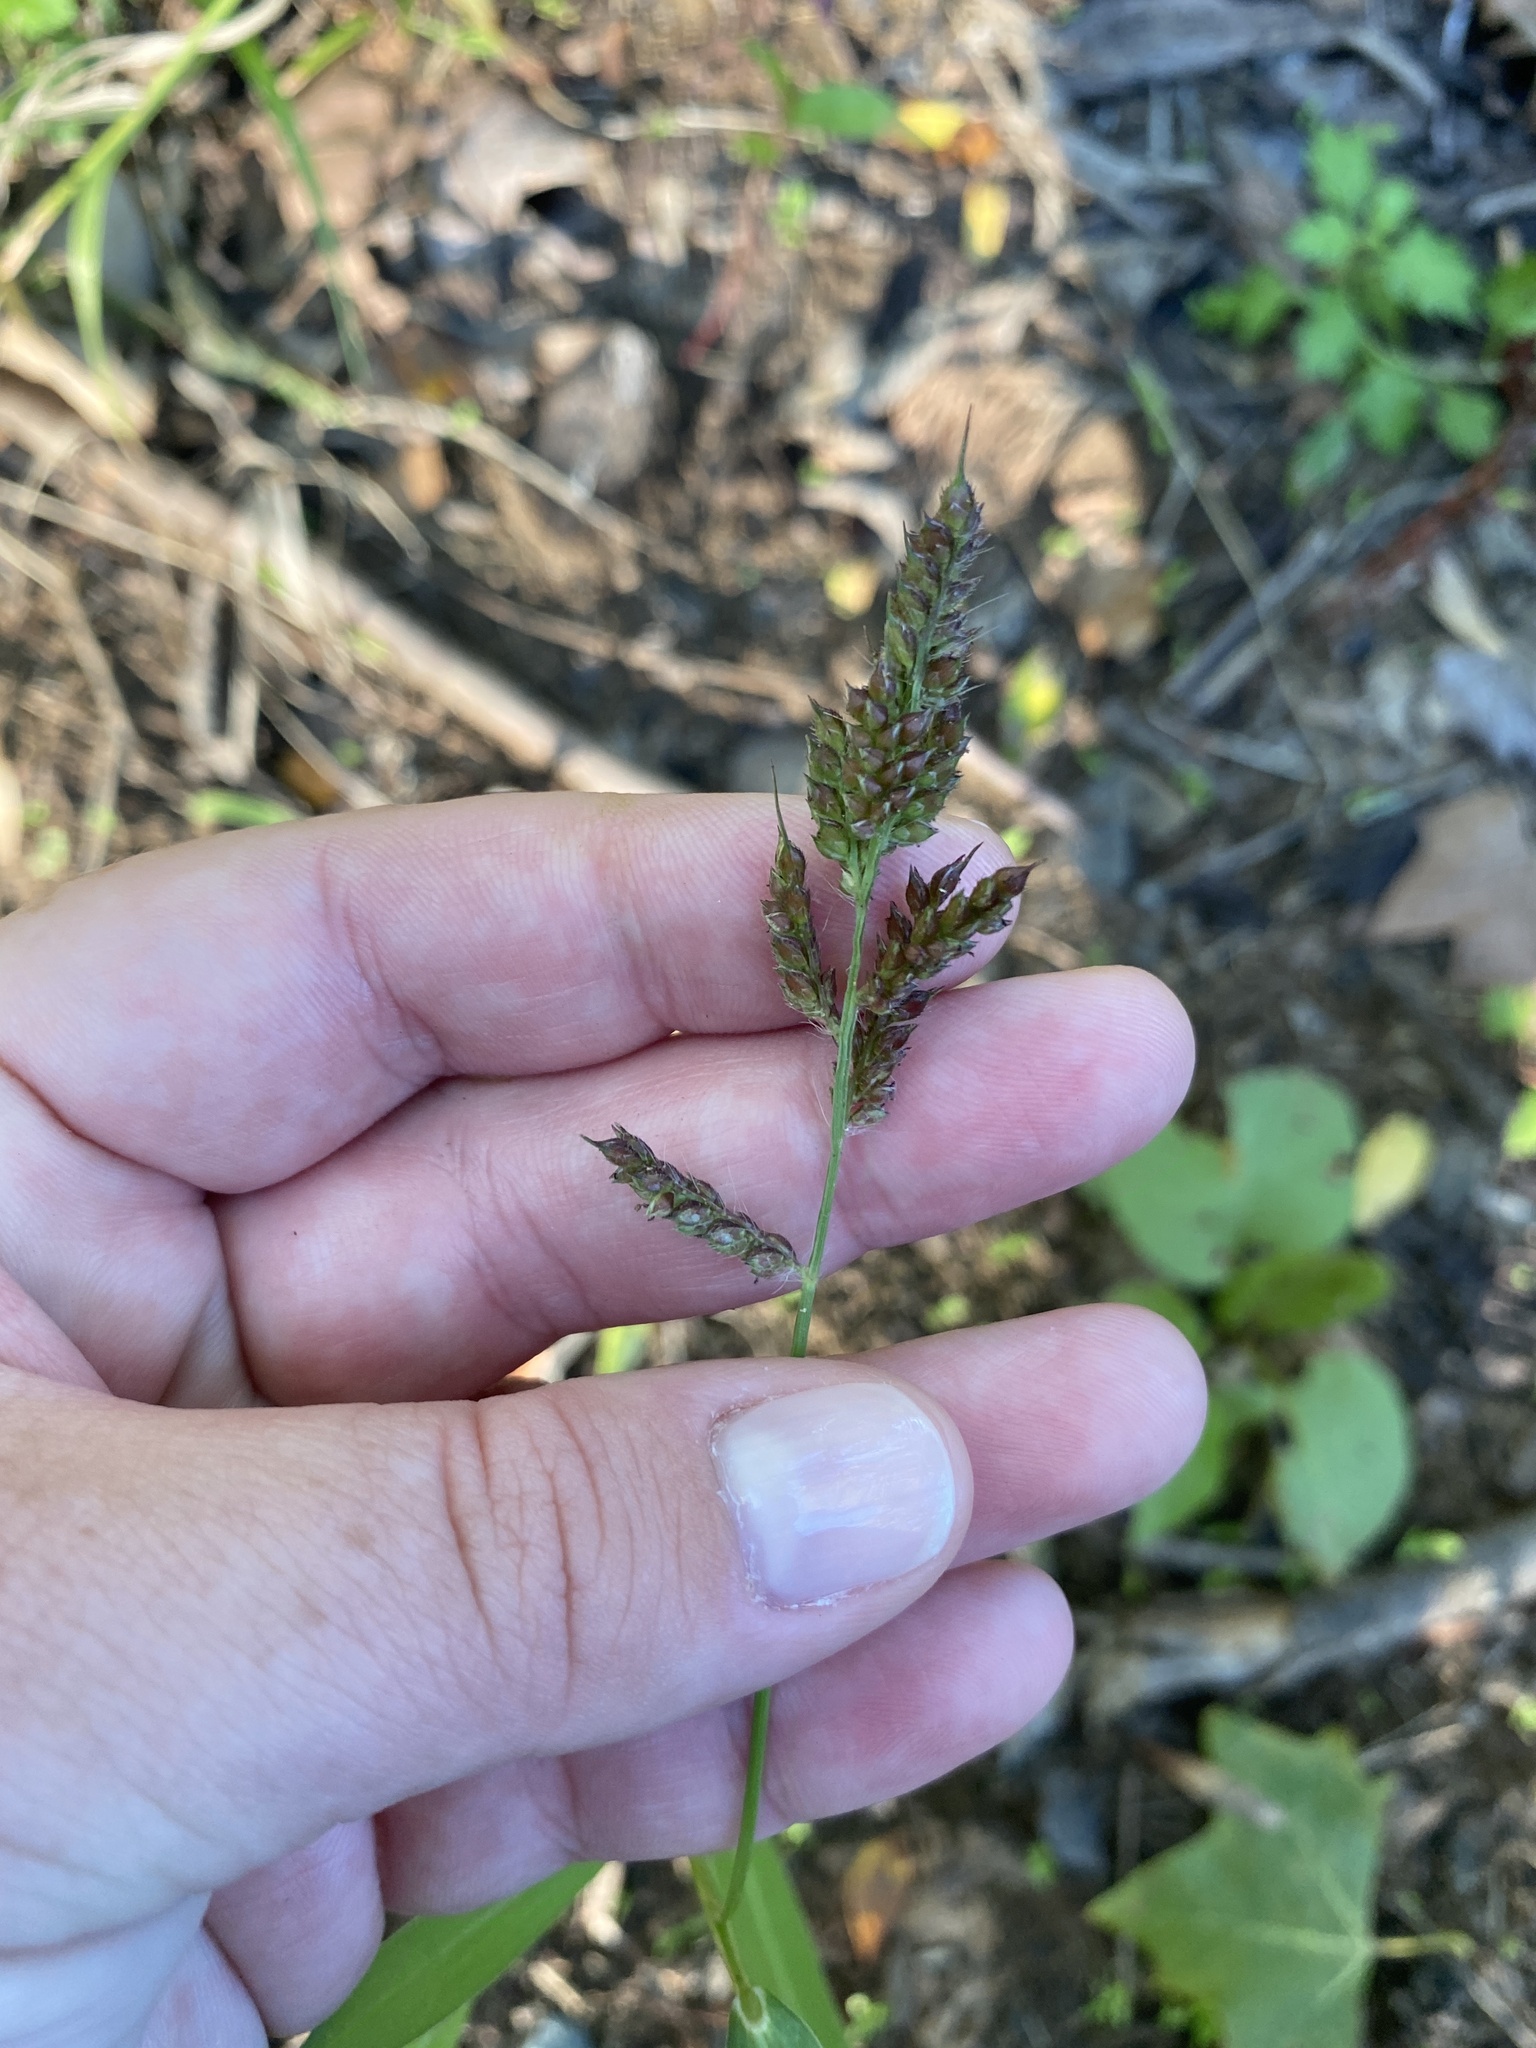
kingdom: Plantae
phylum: Tracheophyta
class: Liliopsida
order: Poales
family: Poaceae
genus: Echinochloa
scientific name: Echinochloa crus-galli
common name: Cockspur
